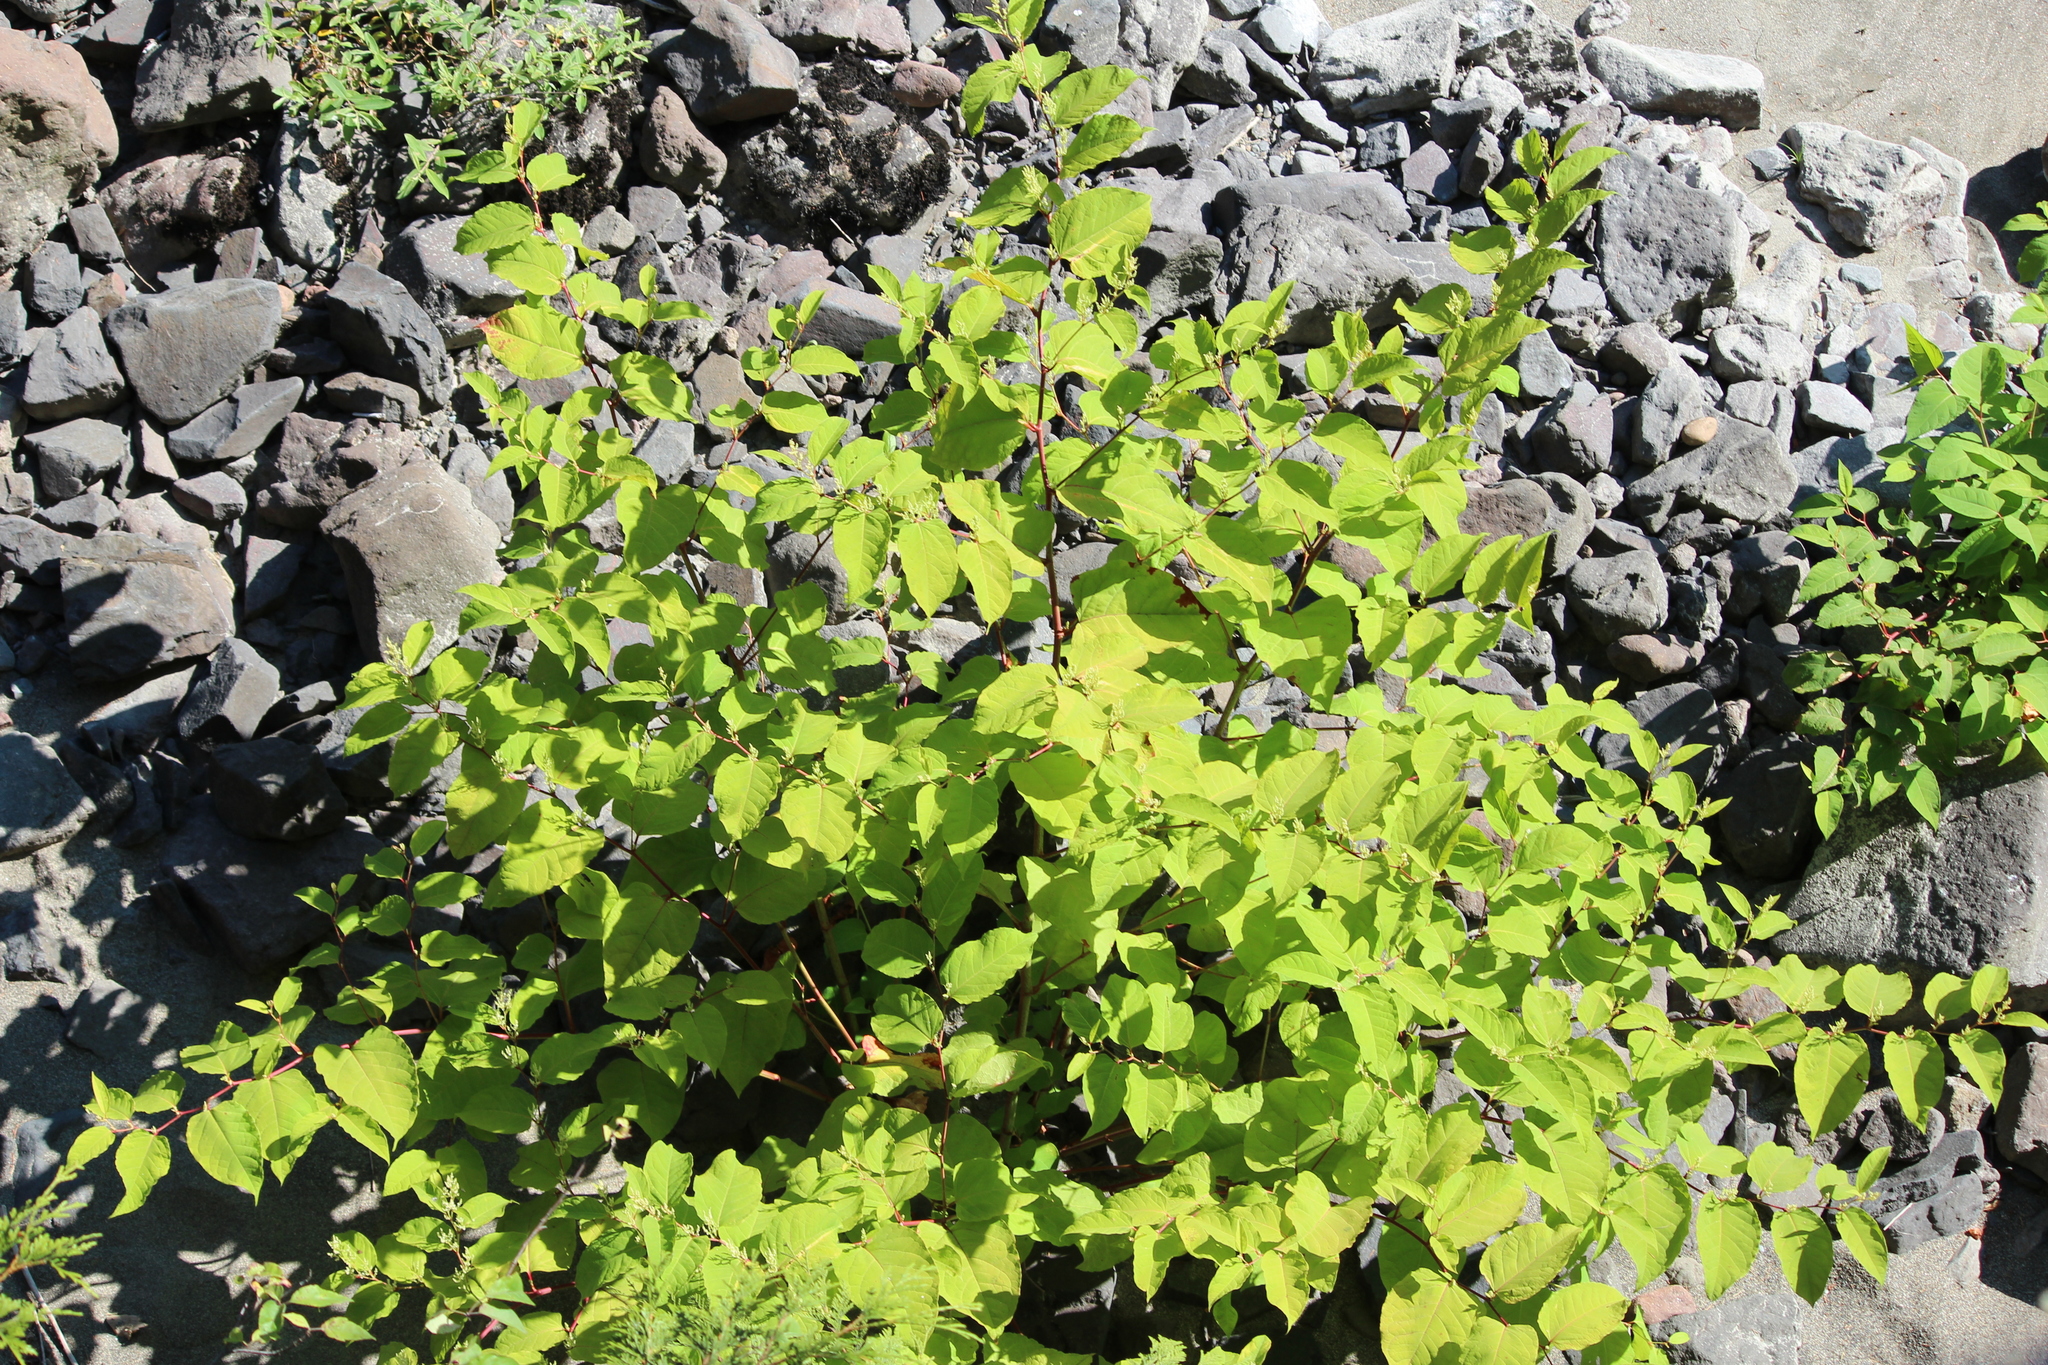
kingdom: Plantae
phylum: Tracheophyta
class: Magnoliopsida
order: Caryophyllales
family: Polygonaceae
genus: Reynoutria
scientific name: Reynoutria japonica
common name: Japanese knotweed
